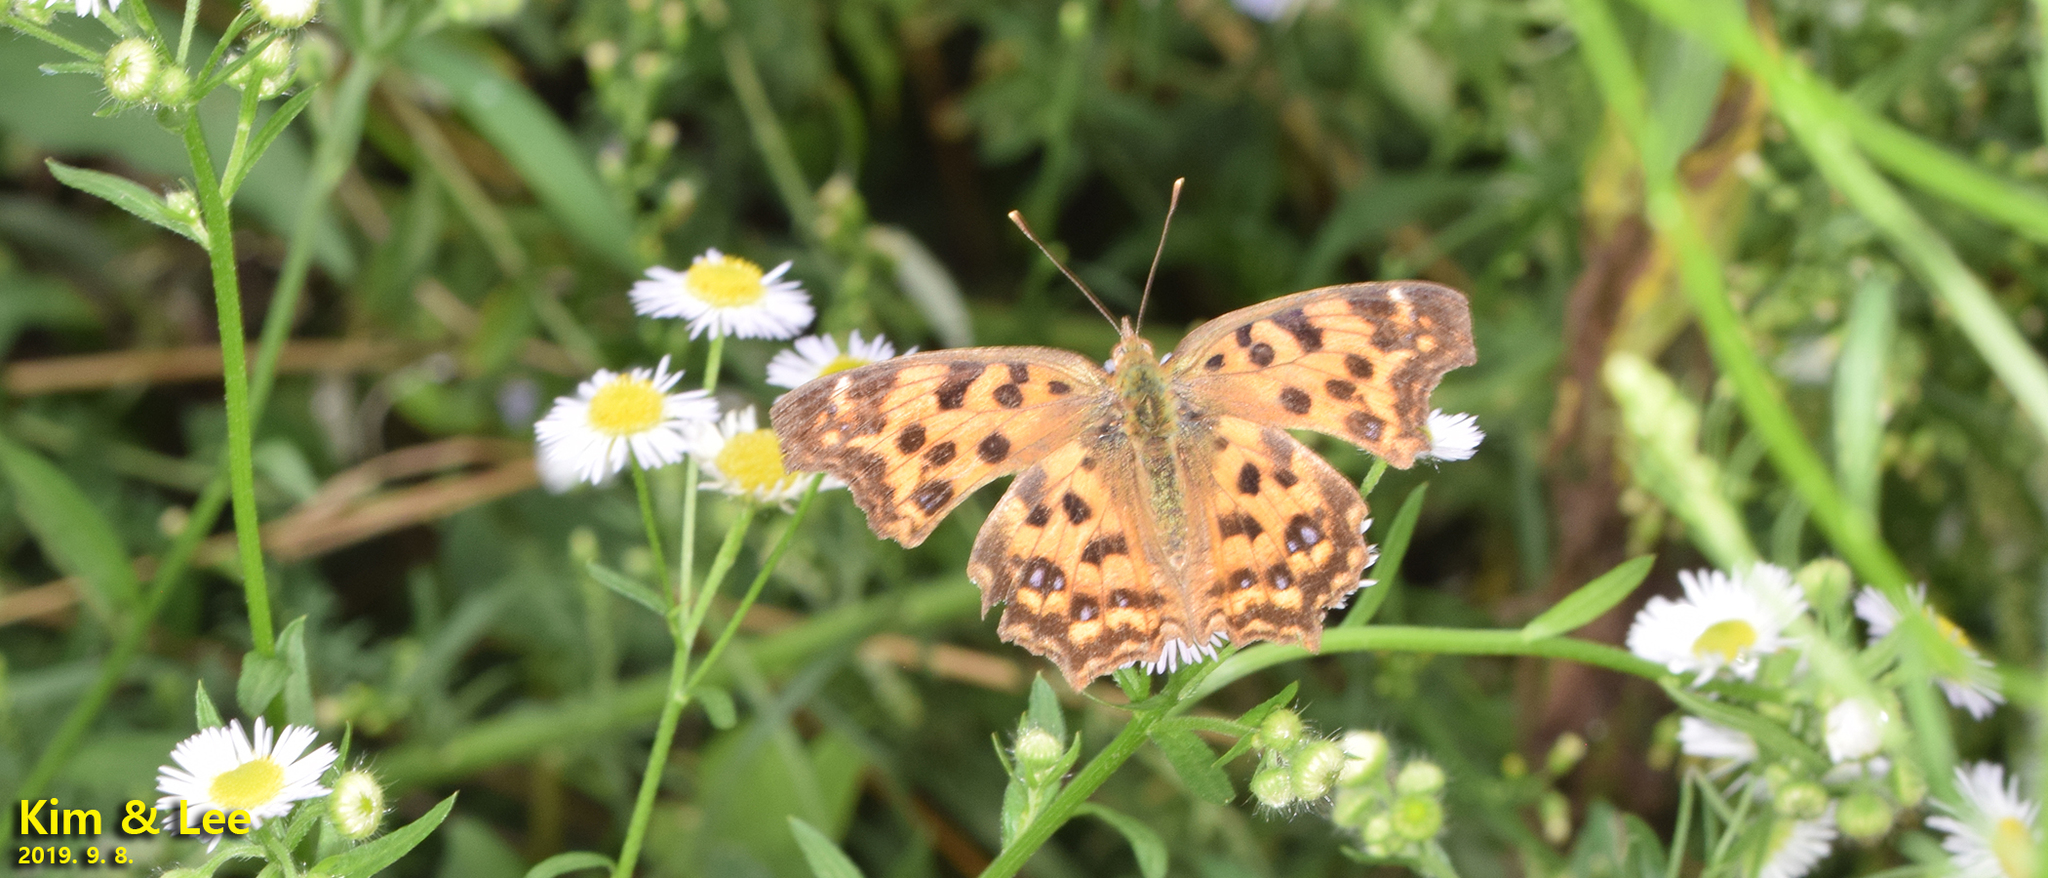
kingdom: Animalia
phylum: Arthropoda
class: Insecta
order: Lepidoptera
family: Nymphalidae
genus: Polygonia
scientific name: Polygonia c-aureum
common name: Asian comma
